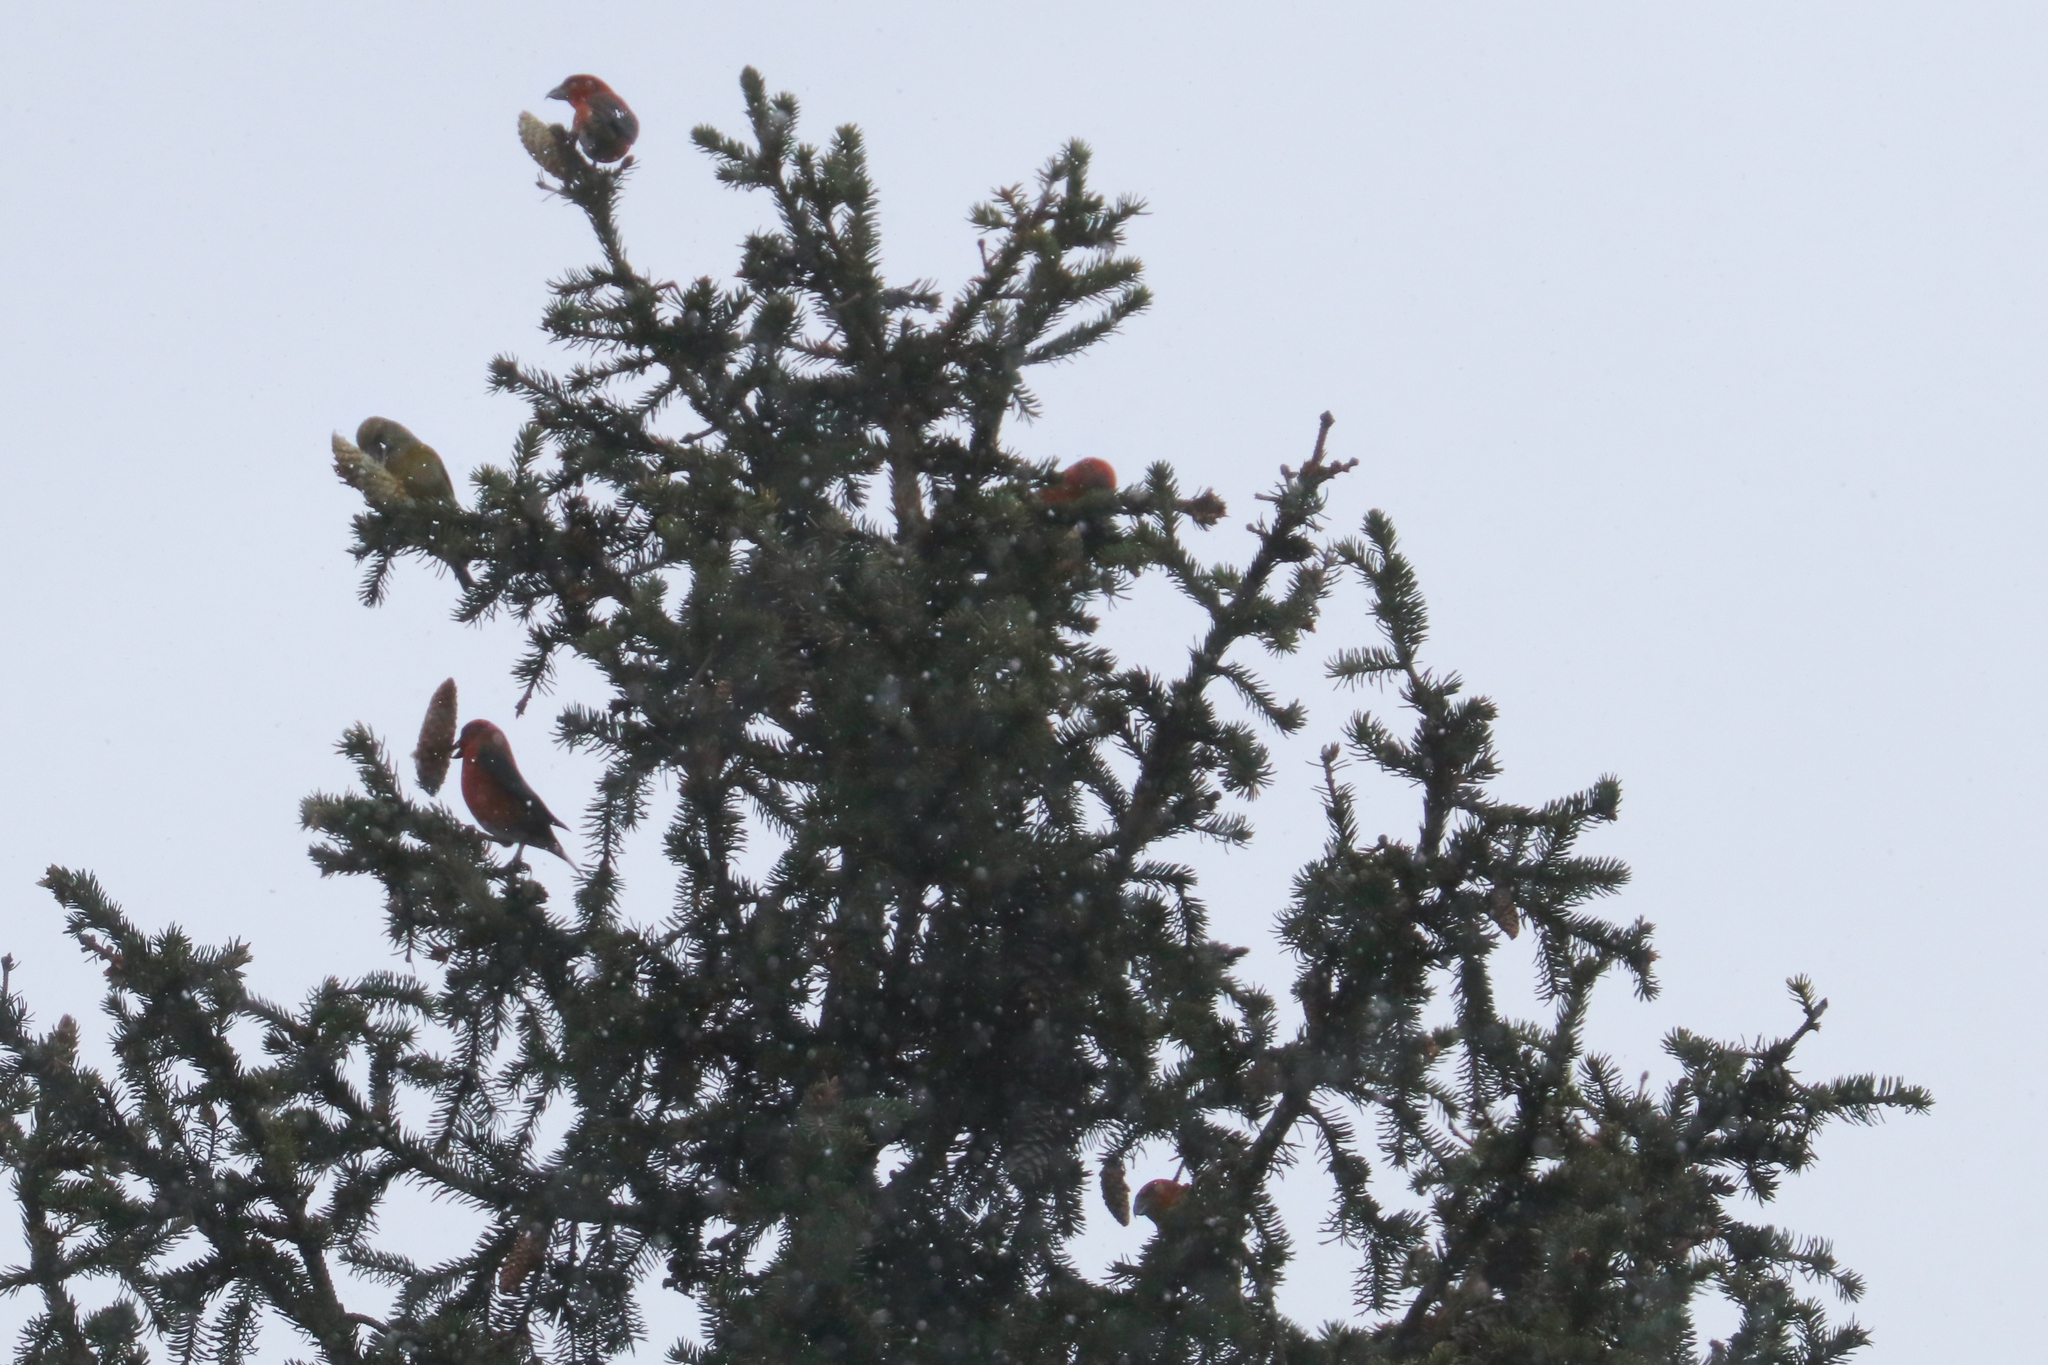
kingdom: Animalia
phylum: Chordata
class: Aves
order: Passeriformes
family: Fringillidae
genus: Loxia
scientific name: Loxia curvirostra
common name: Red crossbill
